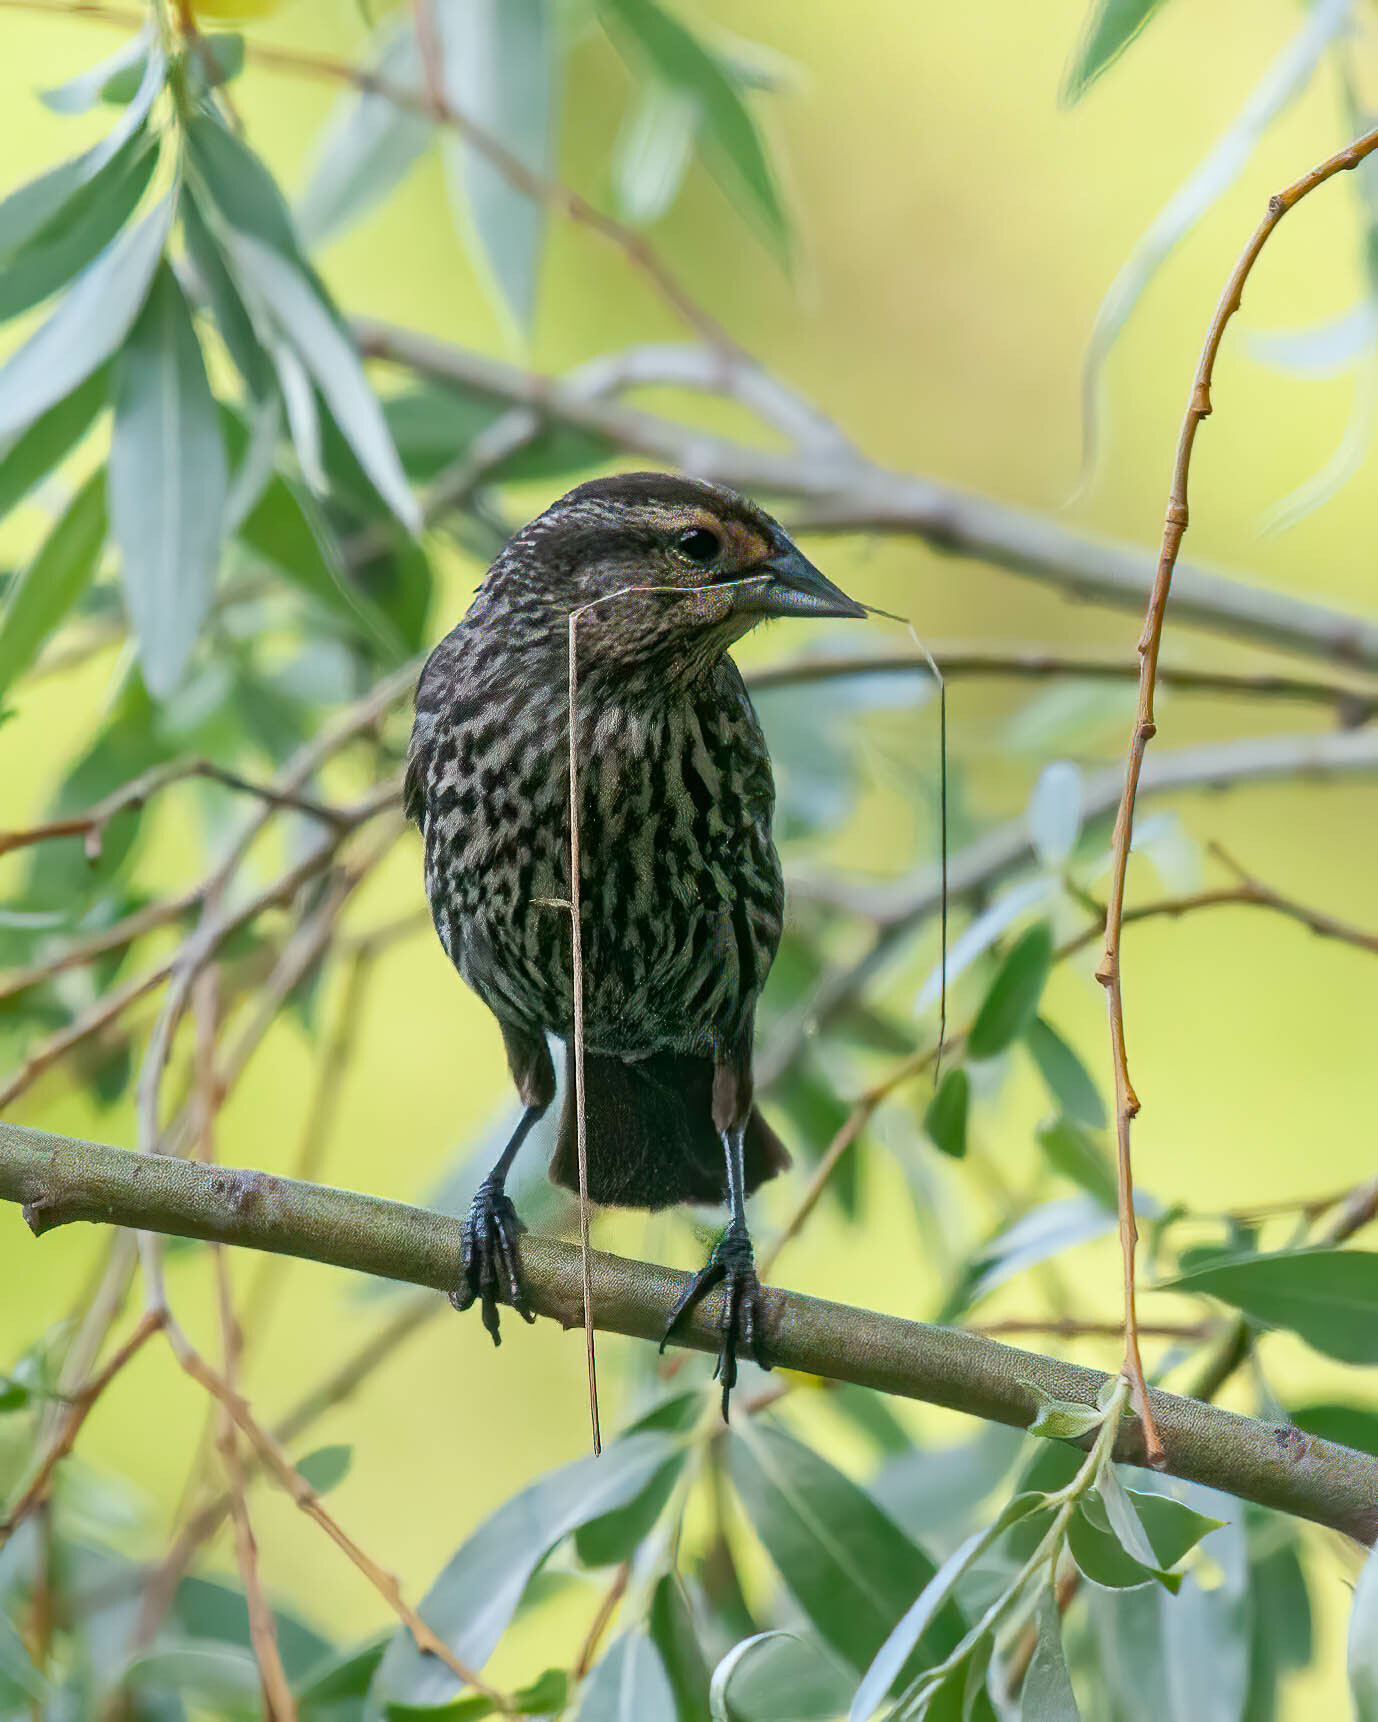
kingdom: Animalia
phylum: Chordata
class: Aves
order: Passeriformes
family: Icteridae
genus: Agelaius
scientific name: Agelaius phoeniceus
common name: Red-winged blackbird
